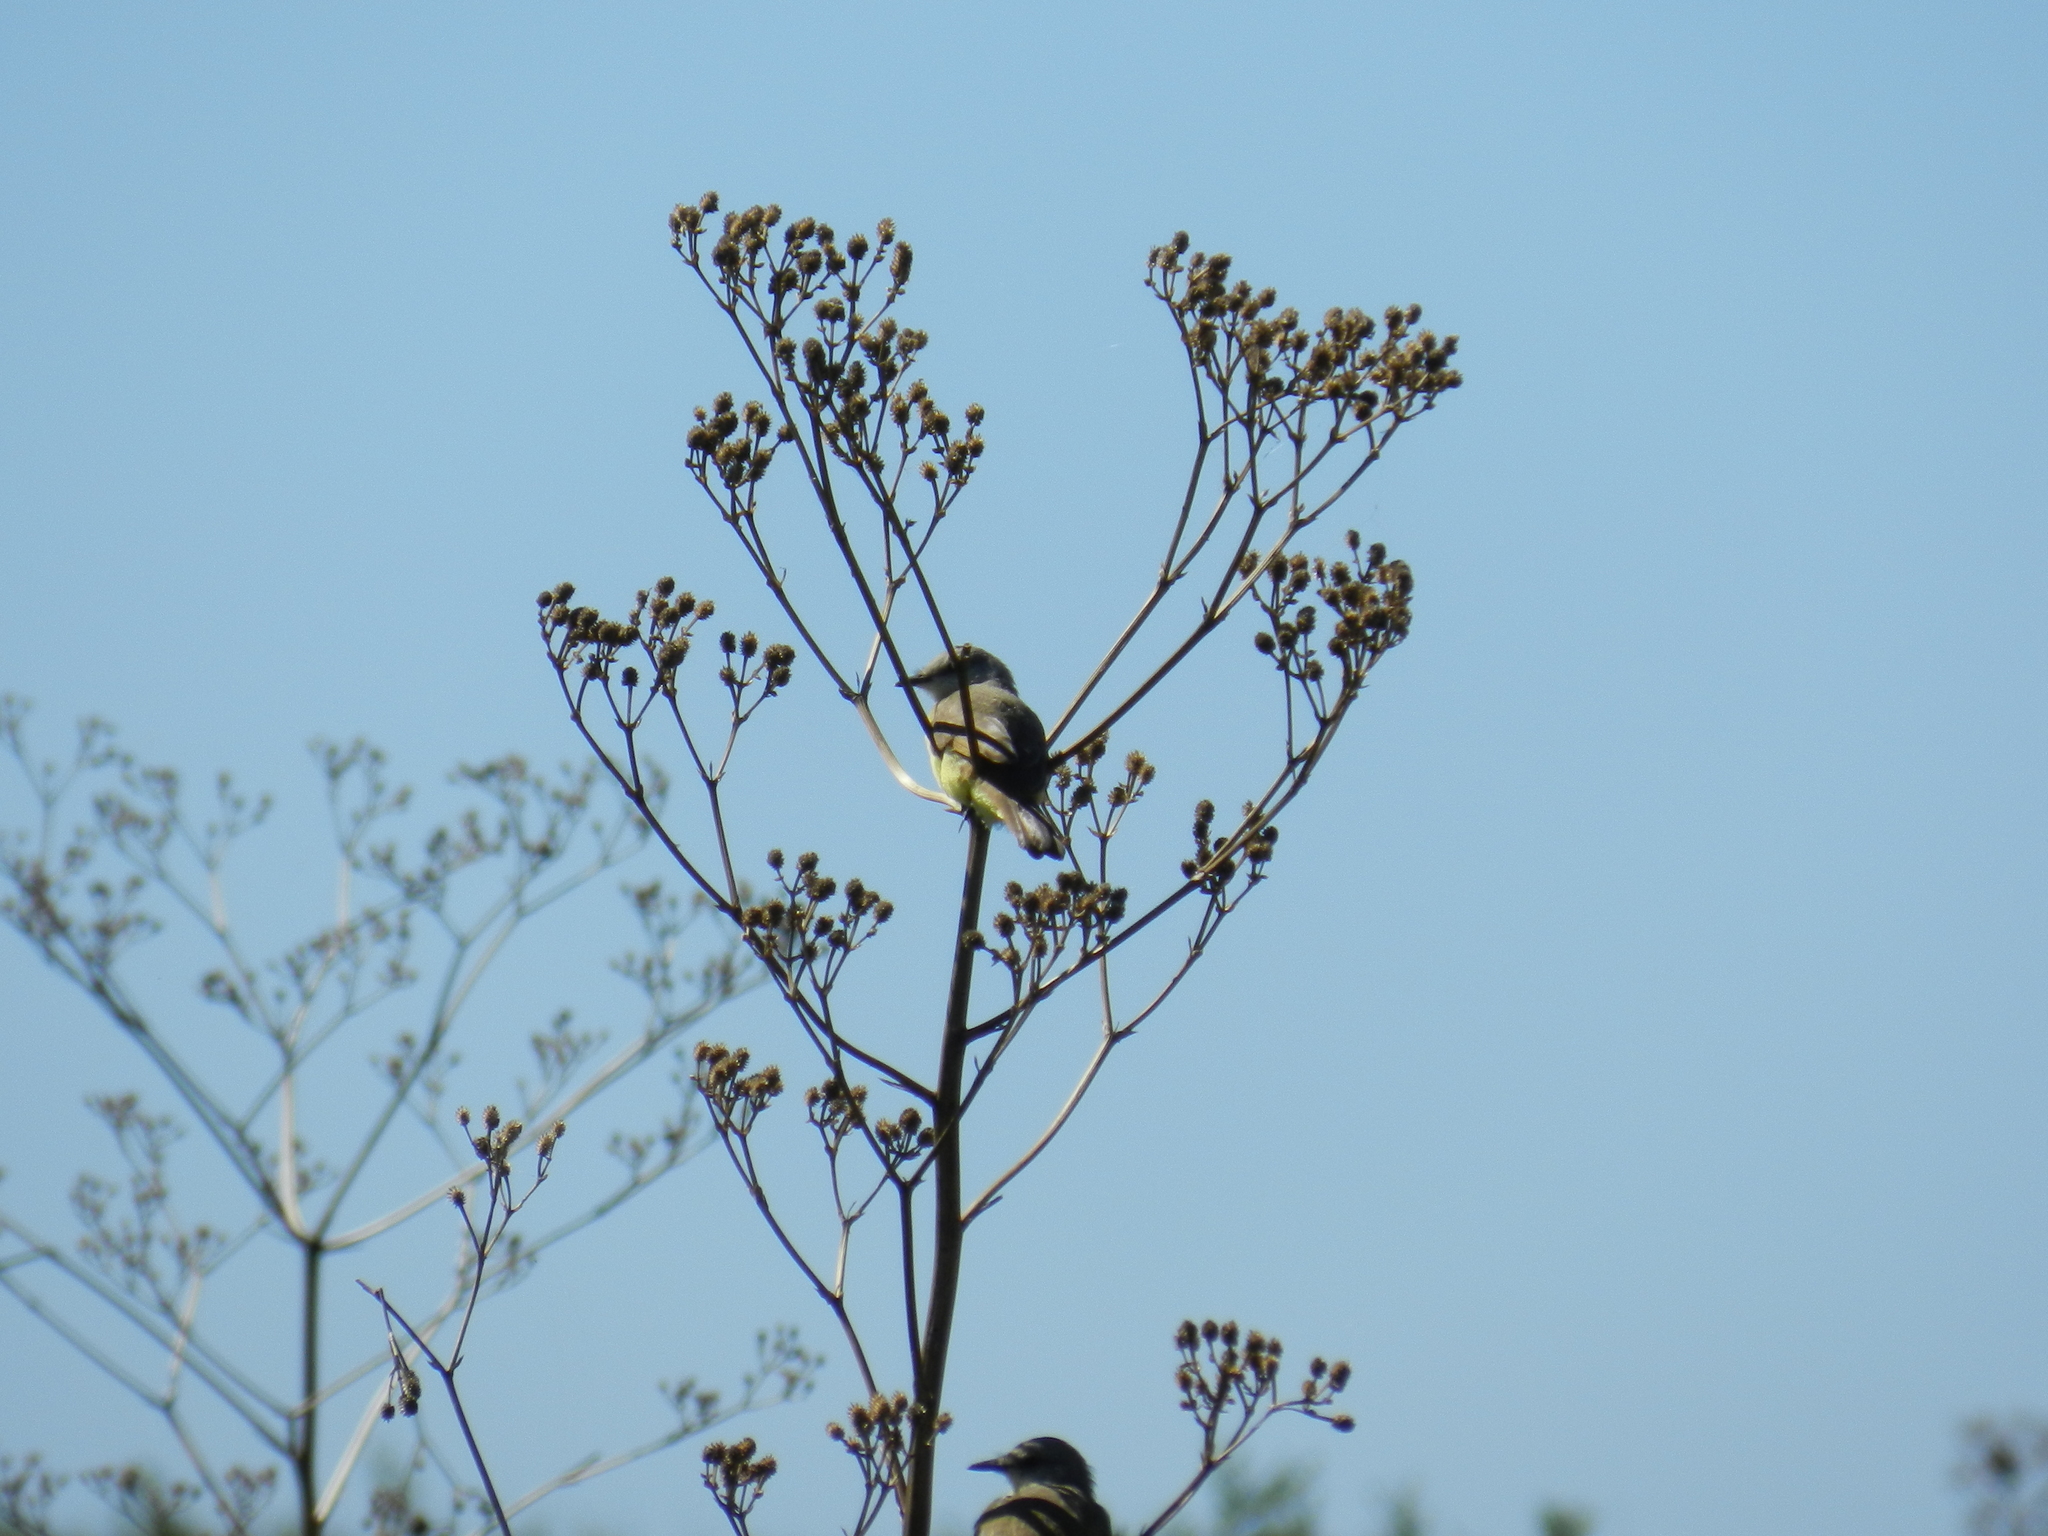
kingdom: Animalia
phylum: Chordata
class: Aves
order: Passeriformes
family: Tyrannidae
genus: Machetornis
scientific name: Machetornis rixosa
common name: Cattle tyrant
